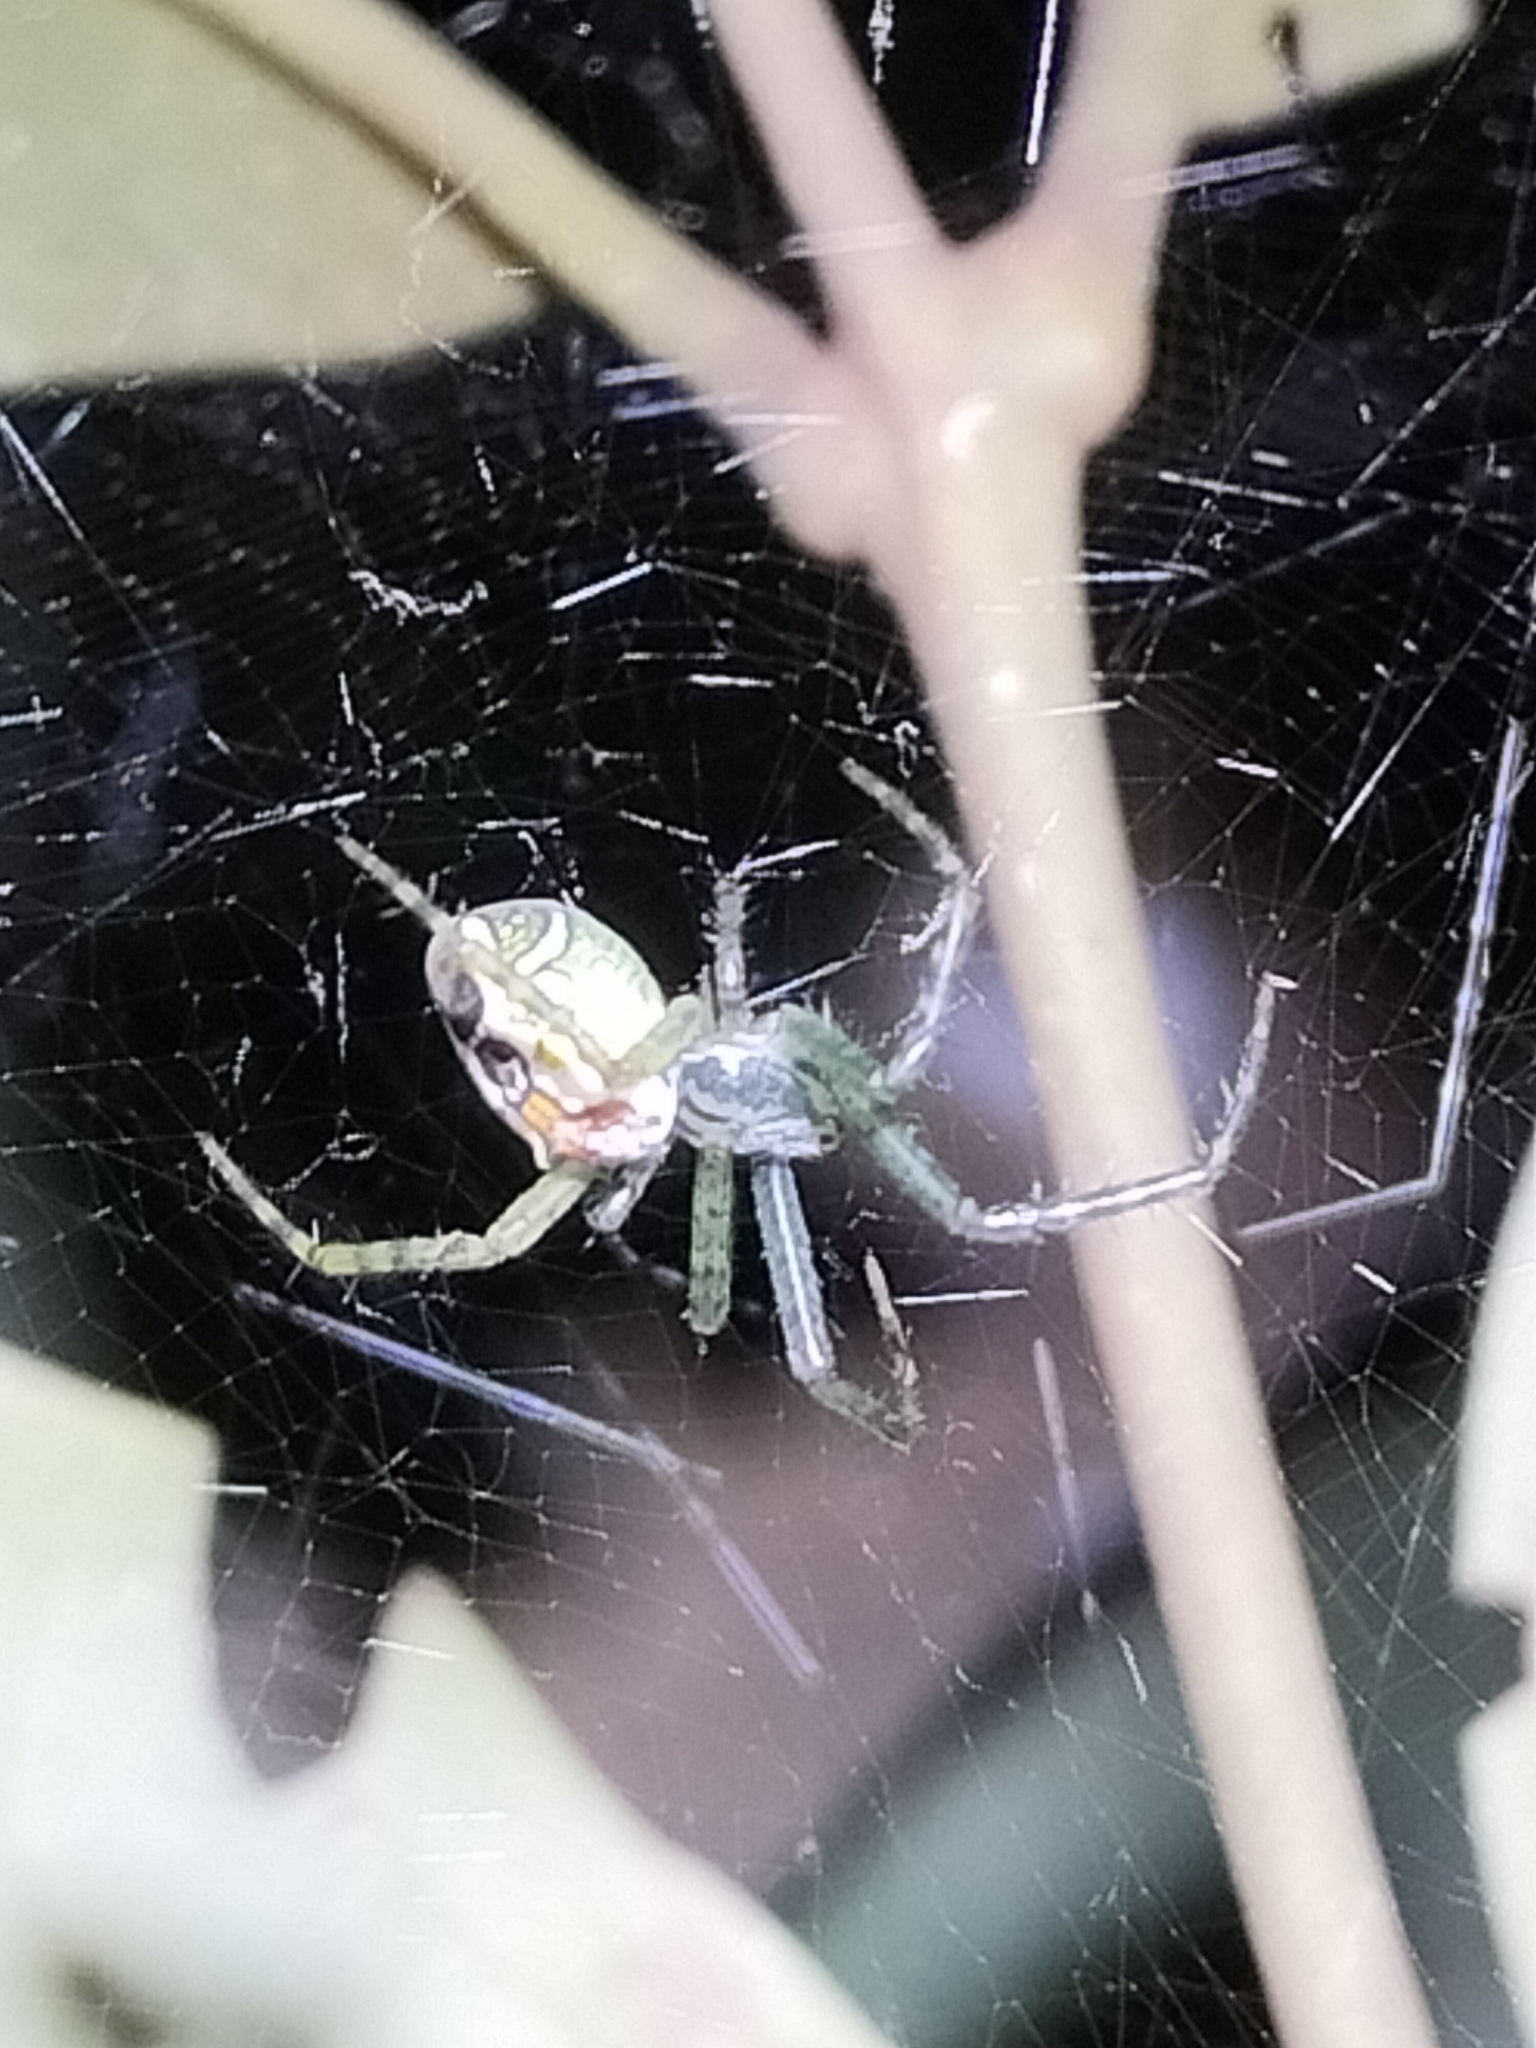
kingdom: Chromista
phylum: Ochrophyta
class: Dictyochophyceae
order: Pedinellales
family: Cyrtophoraceae
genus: Cyrtophora
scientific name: Cyrtophora moluccensis
